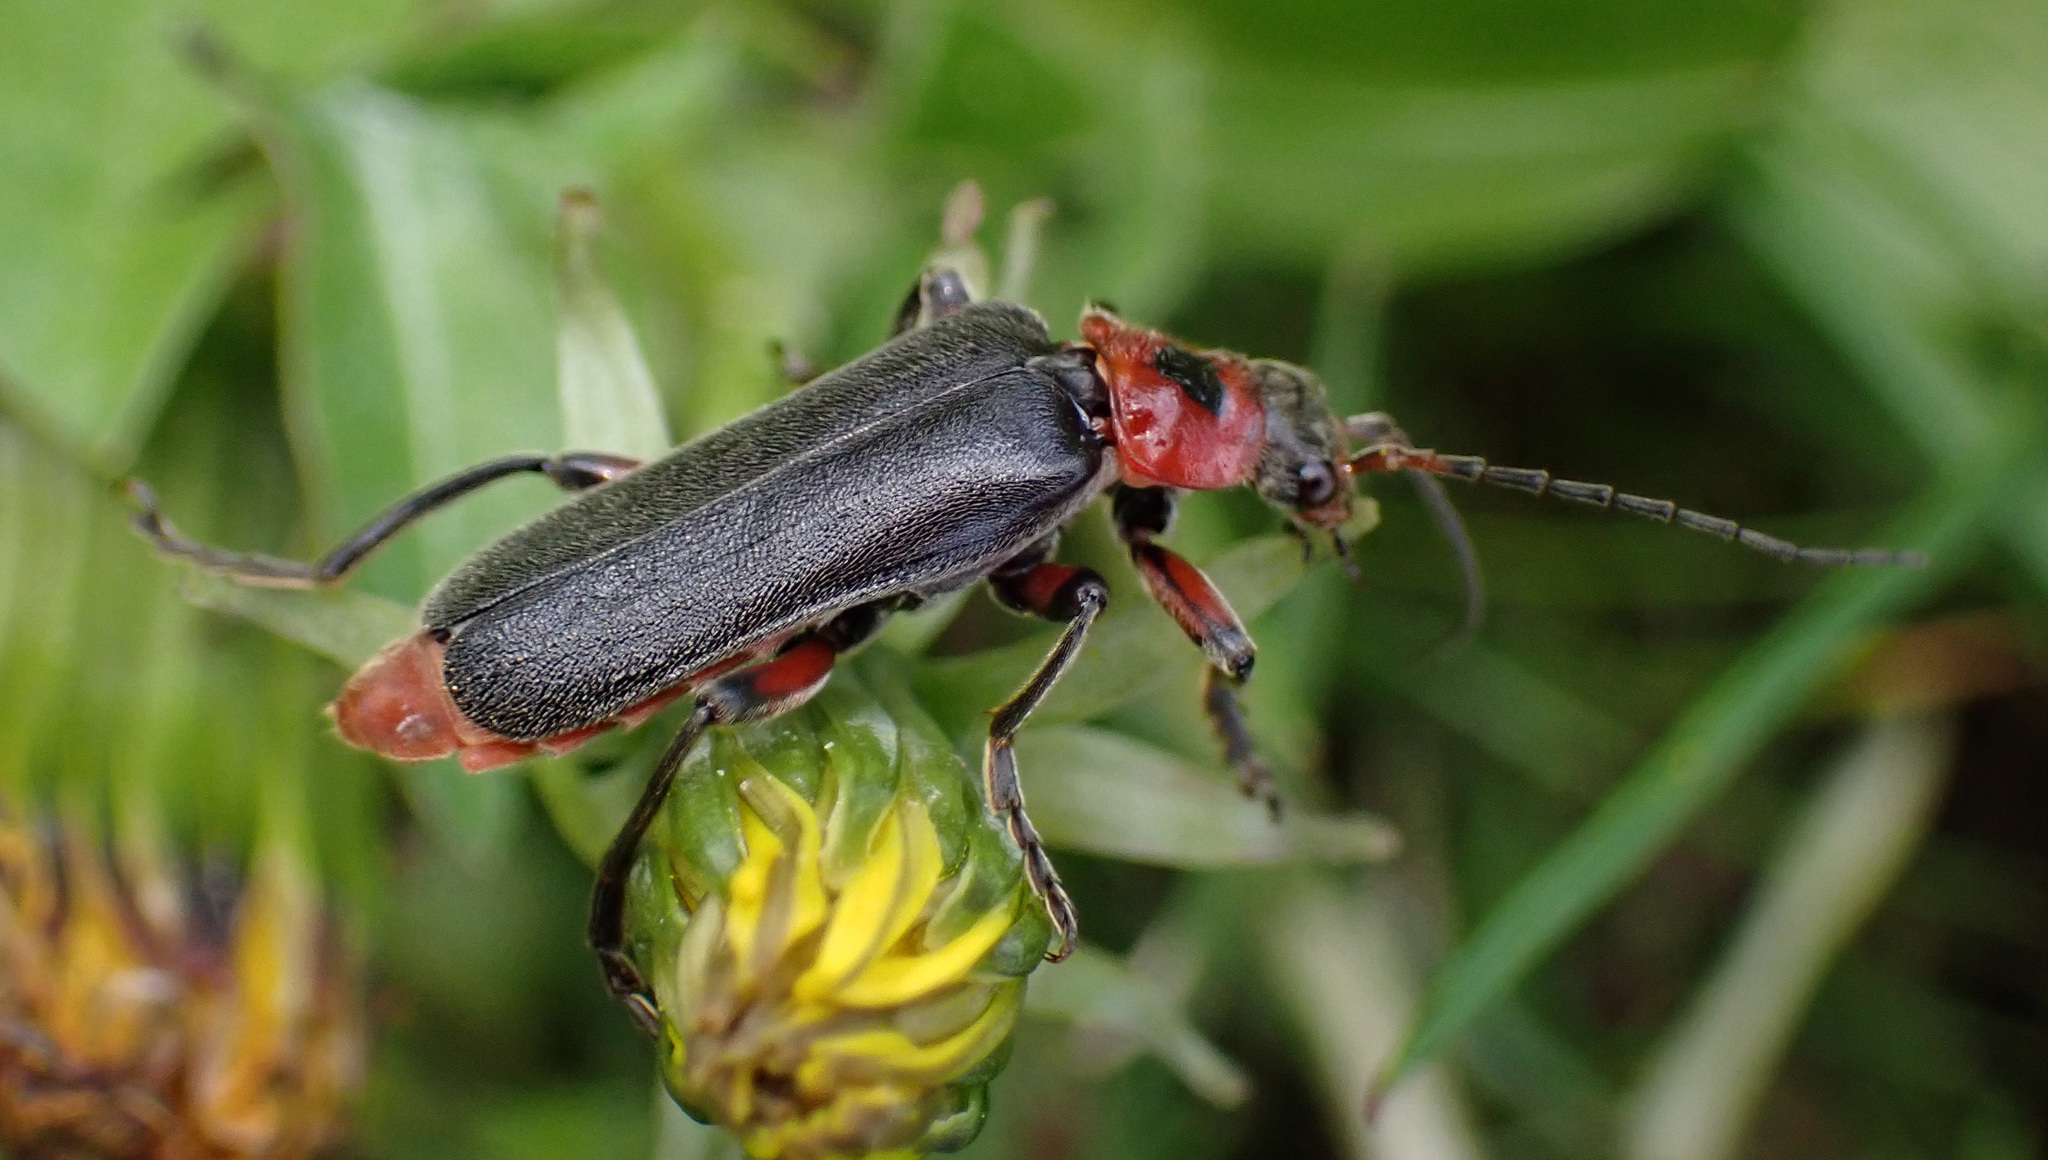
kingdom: Animalia
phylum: Arthropoda
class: Insecta
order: Coleoptera
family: Cantharidae
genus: Cantharis
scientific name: Cantharis rustica
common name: Soldier beetle
